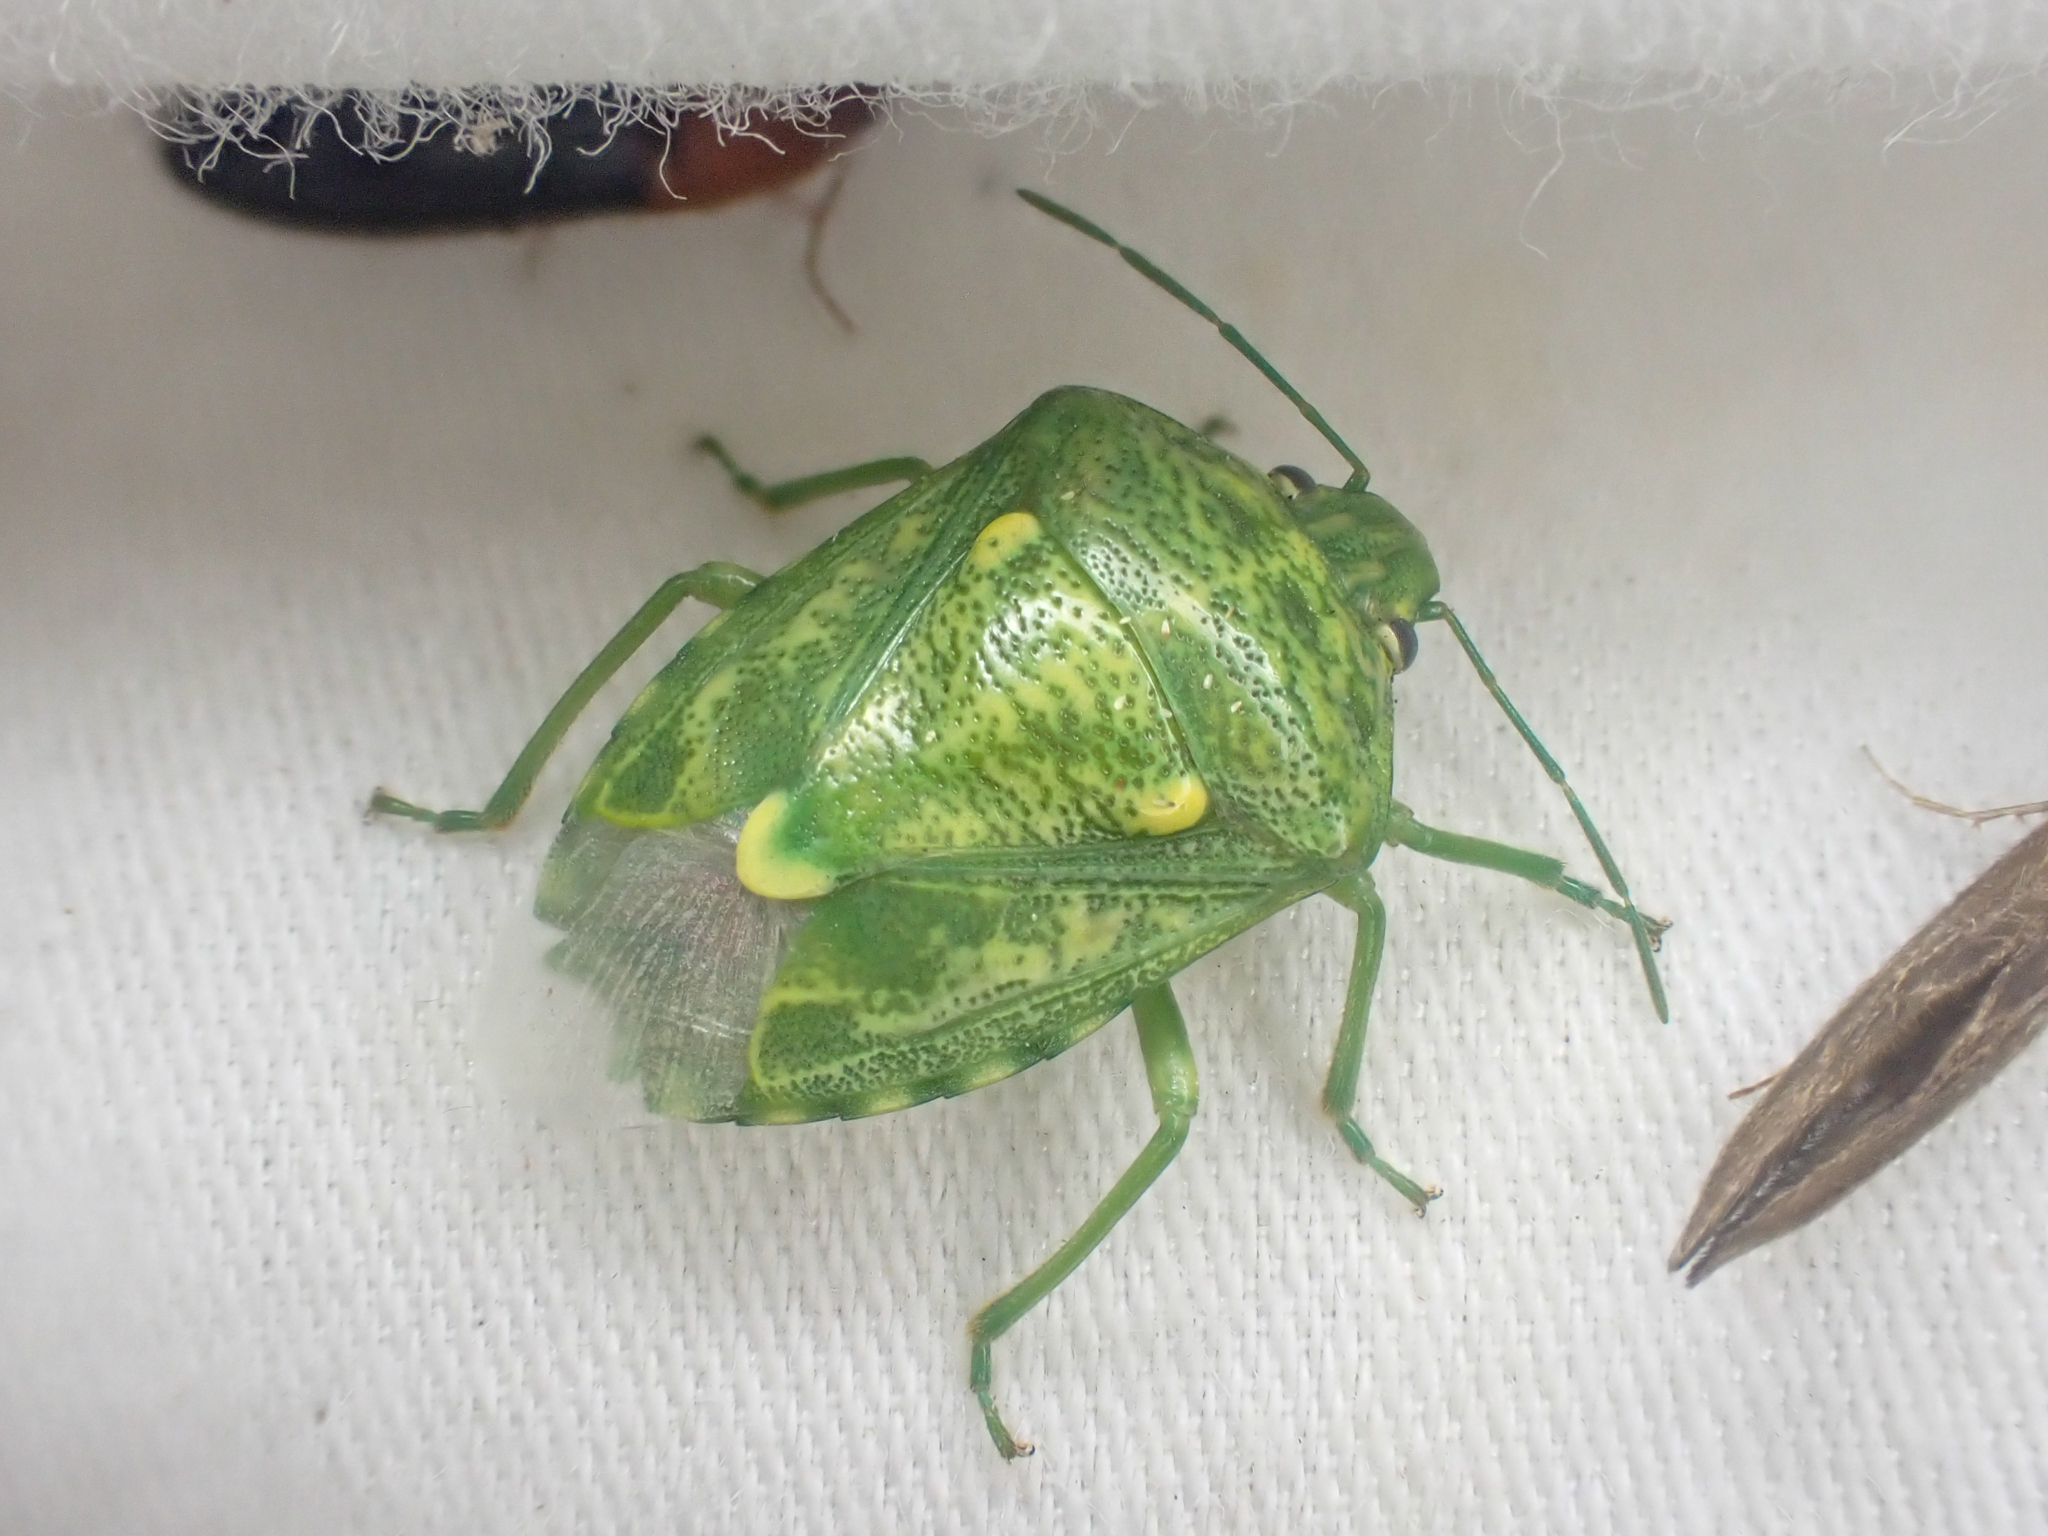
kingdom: Animalia
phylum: Arthropoda
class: Insecta
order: Hemiptera
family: Pentatomidae
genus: Banasa
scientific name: Banasa euchlora
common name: Cedar berry bug
